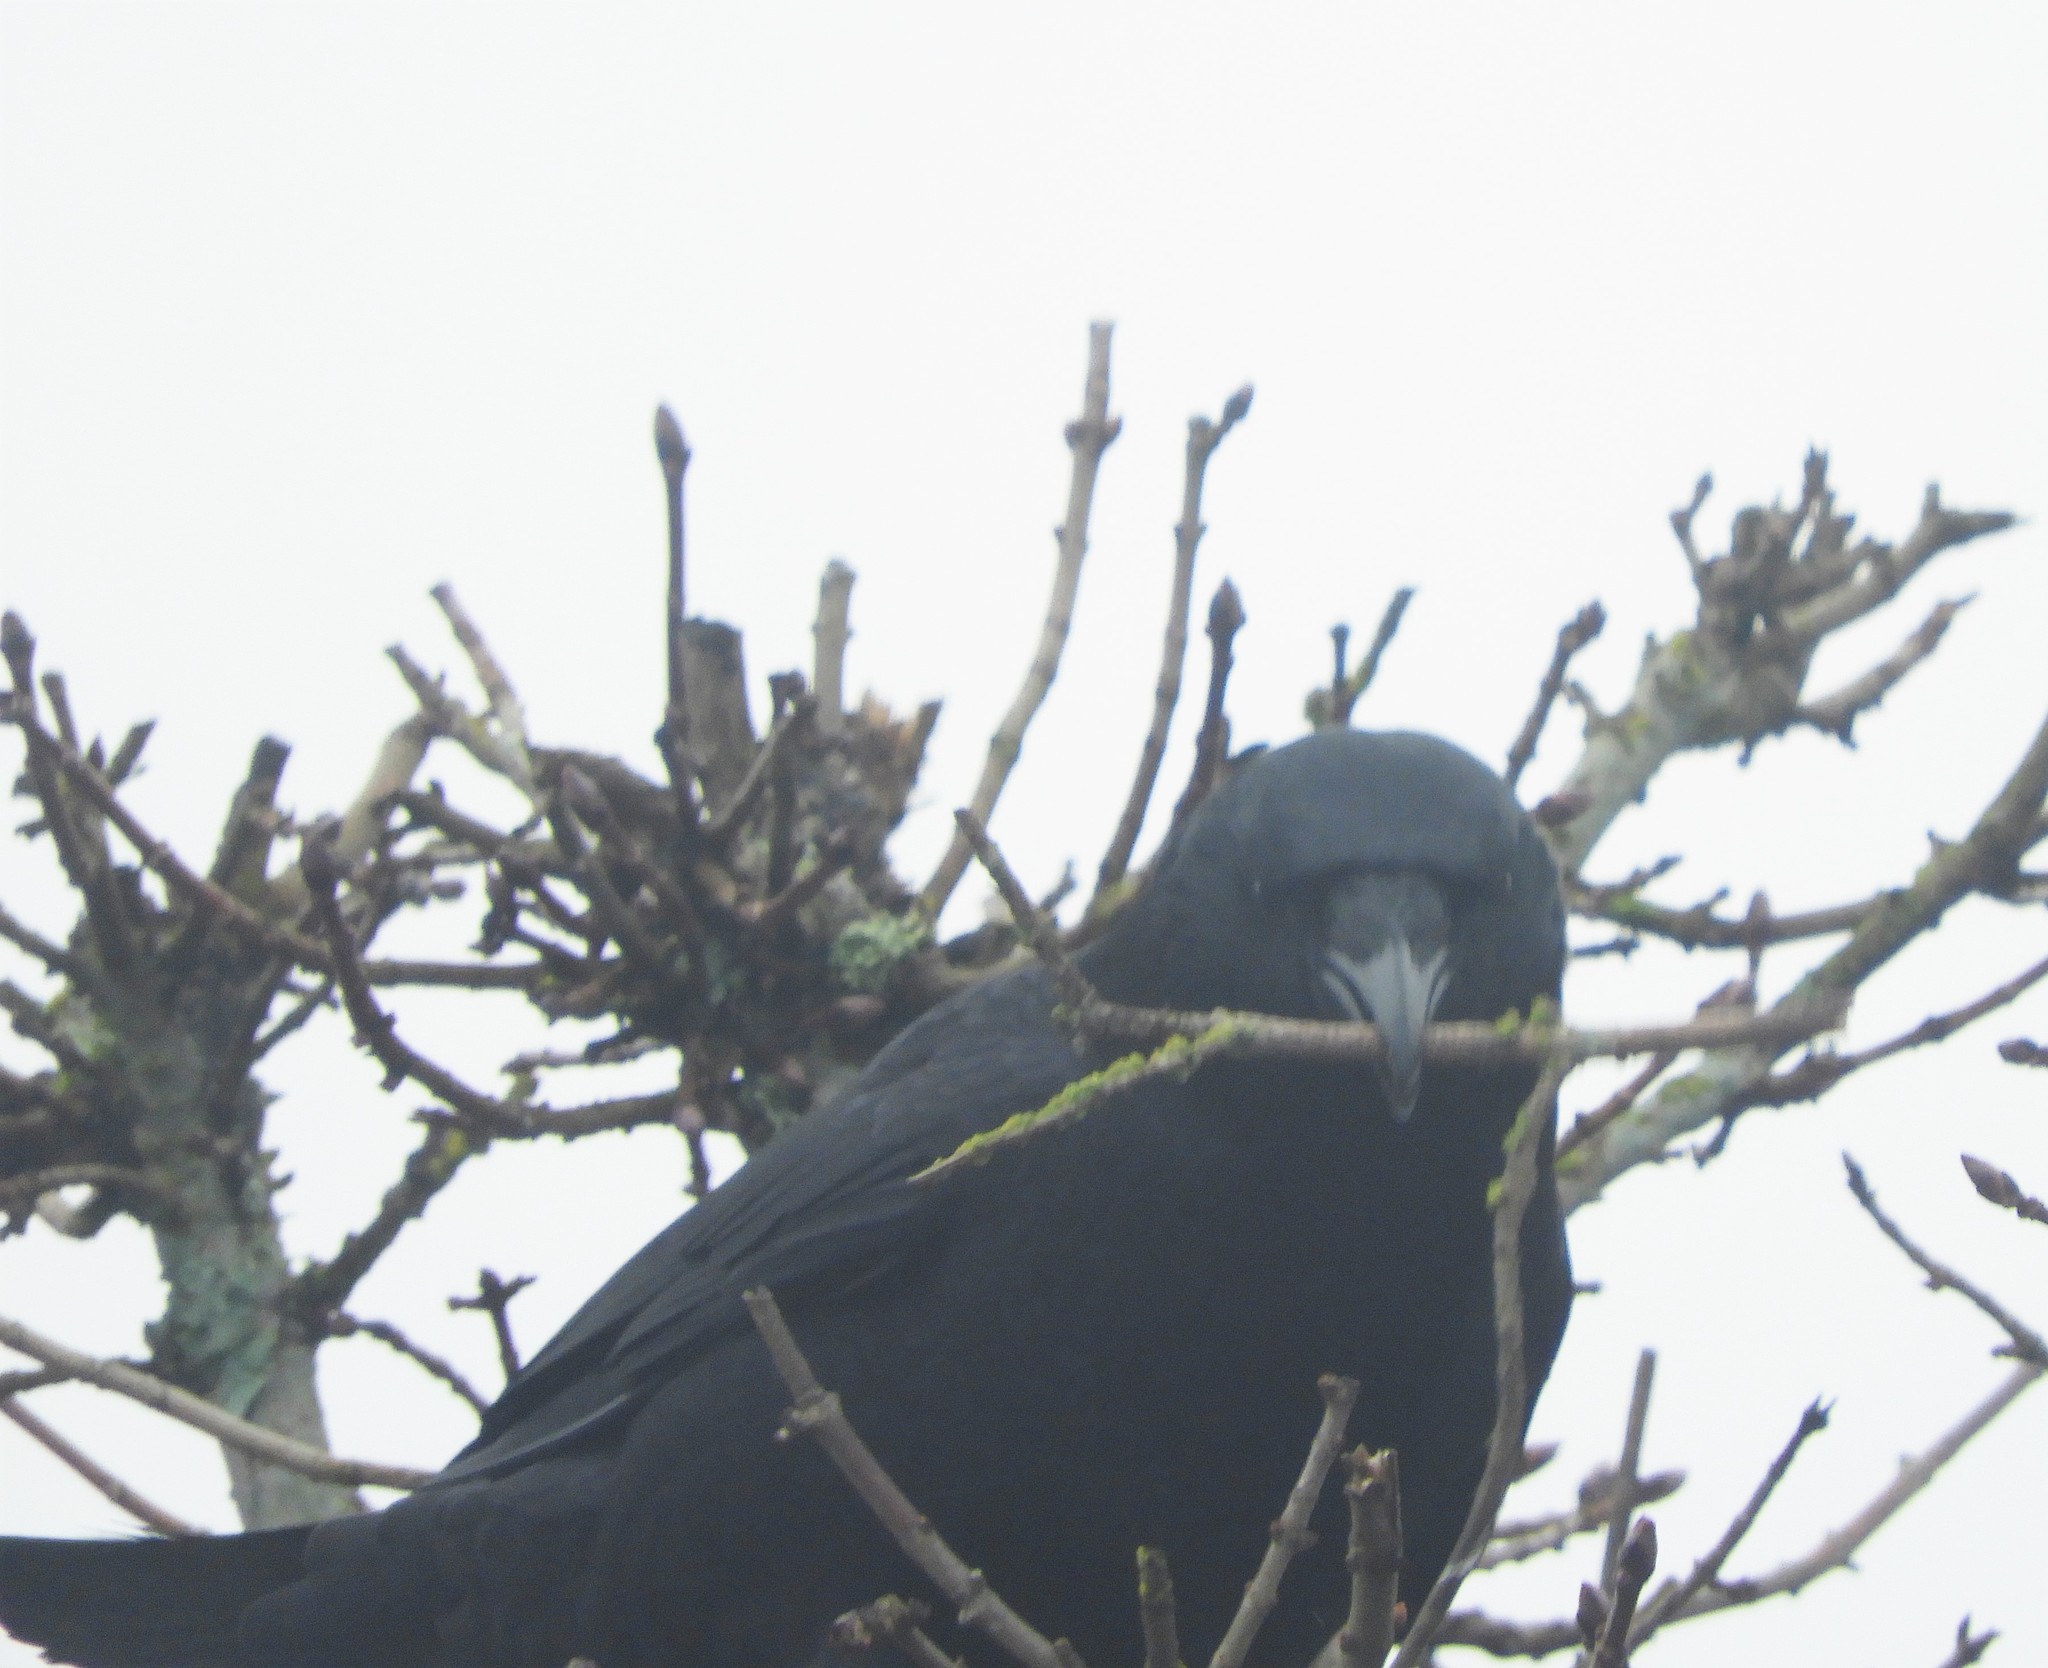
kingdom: Animalia
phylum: Chordata
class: Aves
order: Passeriformes
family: Corvidae
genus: Corvus
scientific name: Corvus brachyrhynchos
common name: American crow
